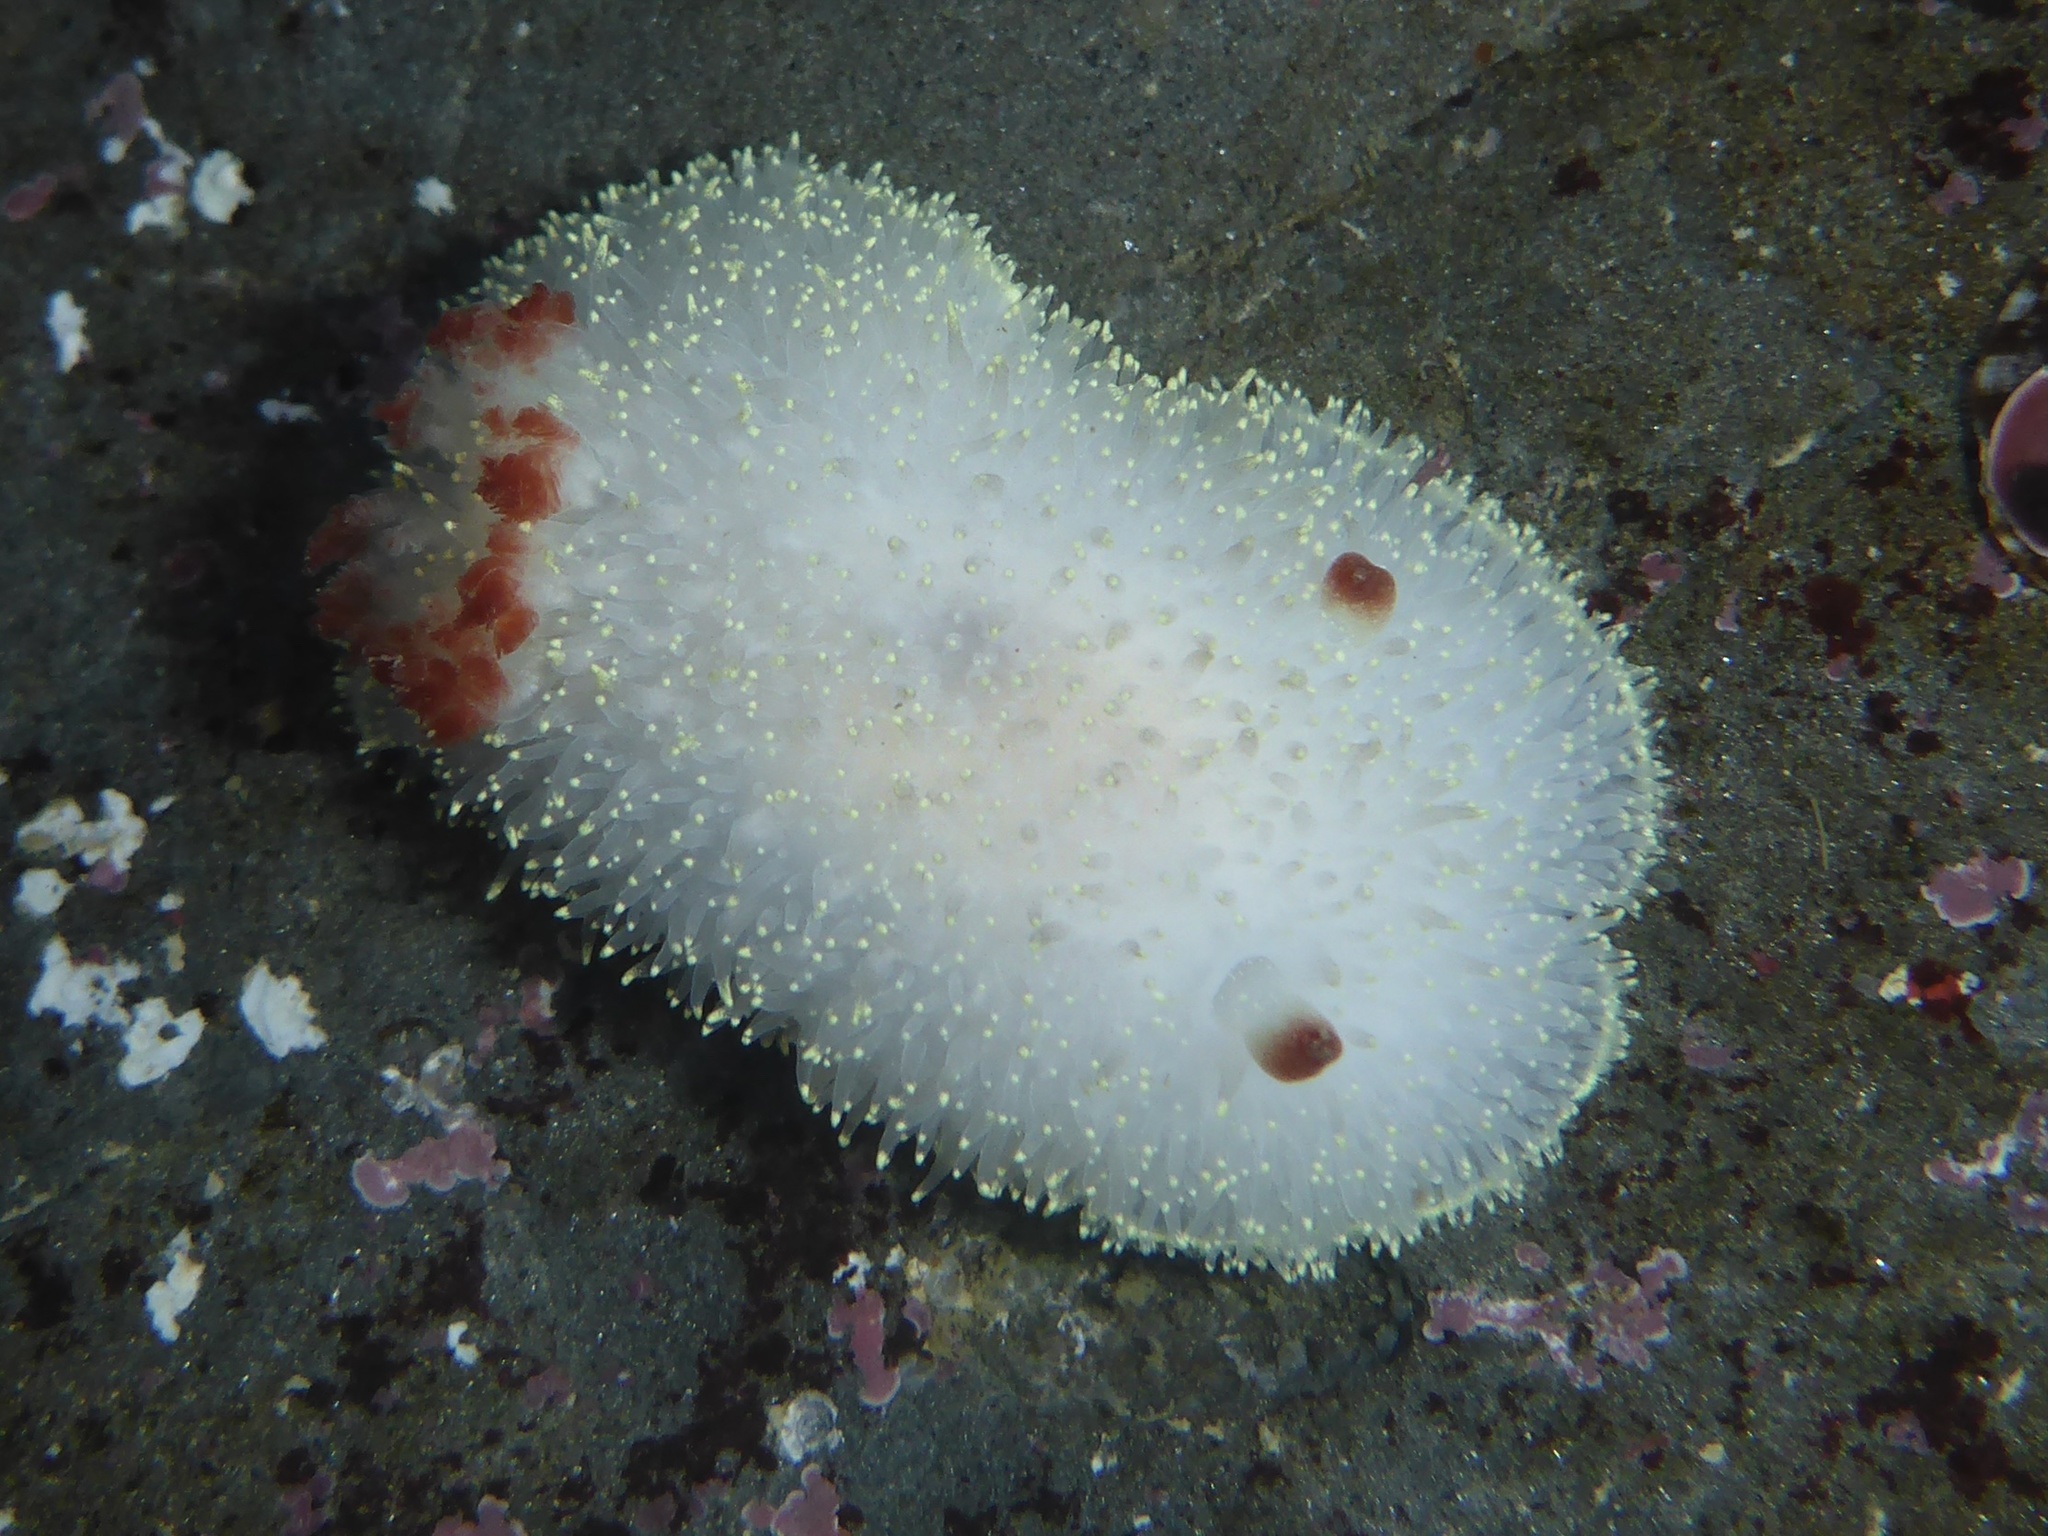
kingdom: Animalia
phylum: Mollusca
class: Gastropoda
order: Nudibranchia
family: Onchidorididae
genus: Acanthodoris
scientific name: Acanthodoris nanaimoensis
